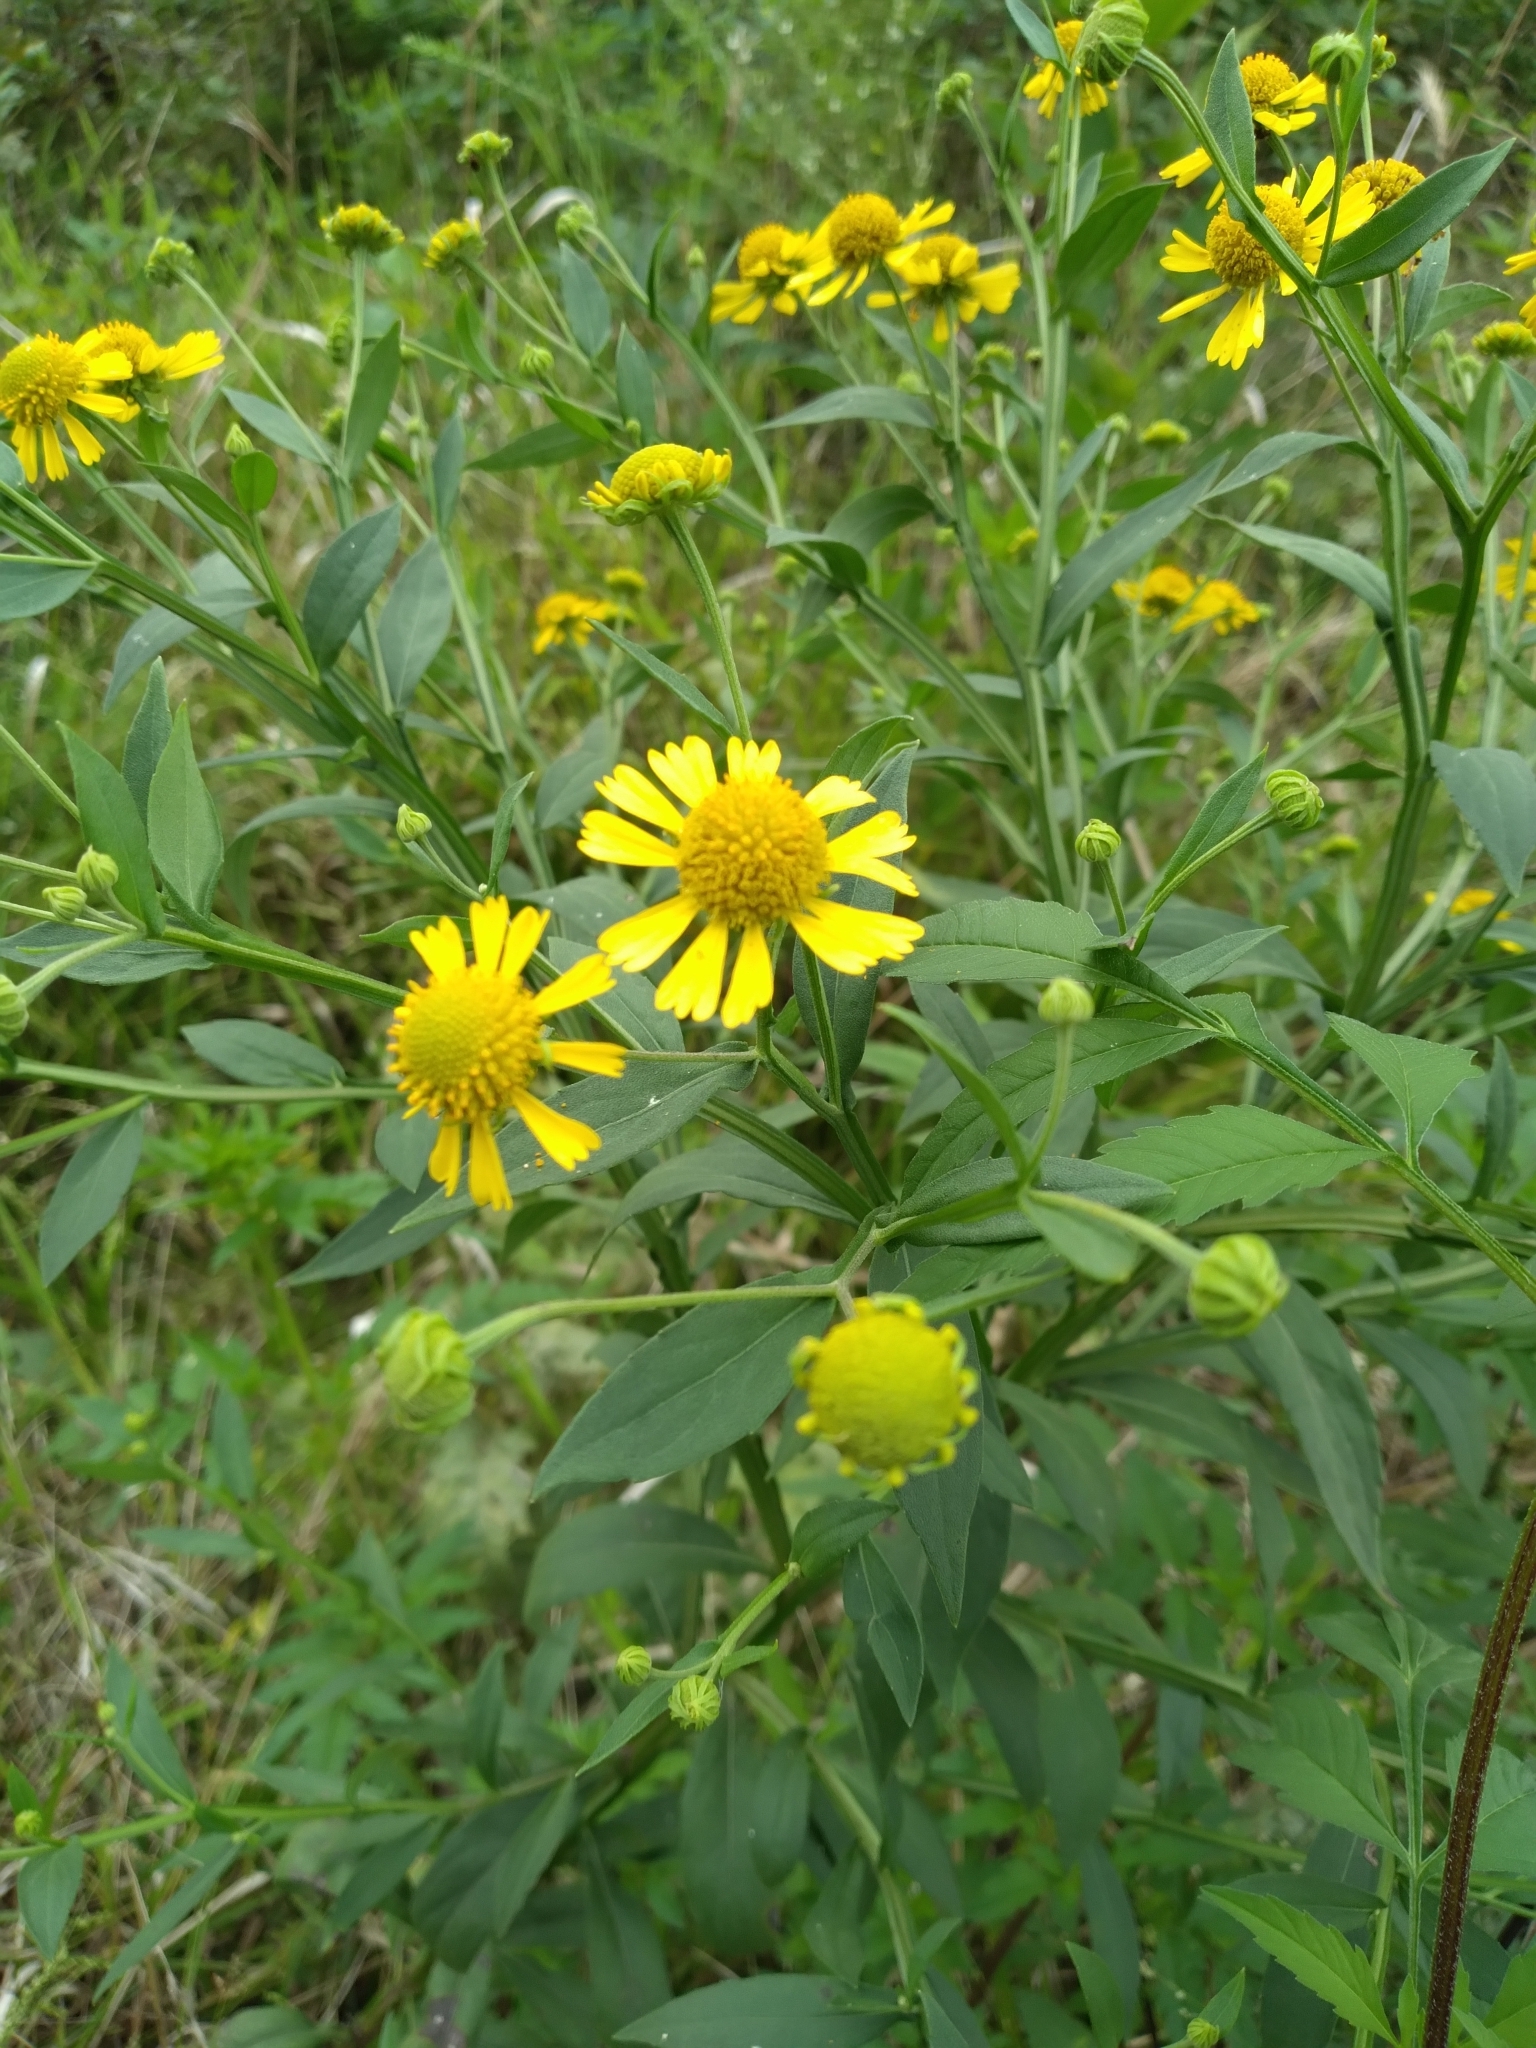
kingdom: Plantae
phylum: Tracheophyta
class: Magnoliopsida
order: Asterales
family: Asteraceae
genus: Helenium
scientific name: Helenium autumnale
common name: Sneezeweed
